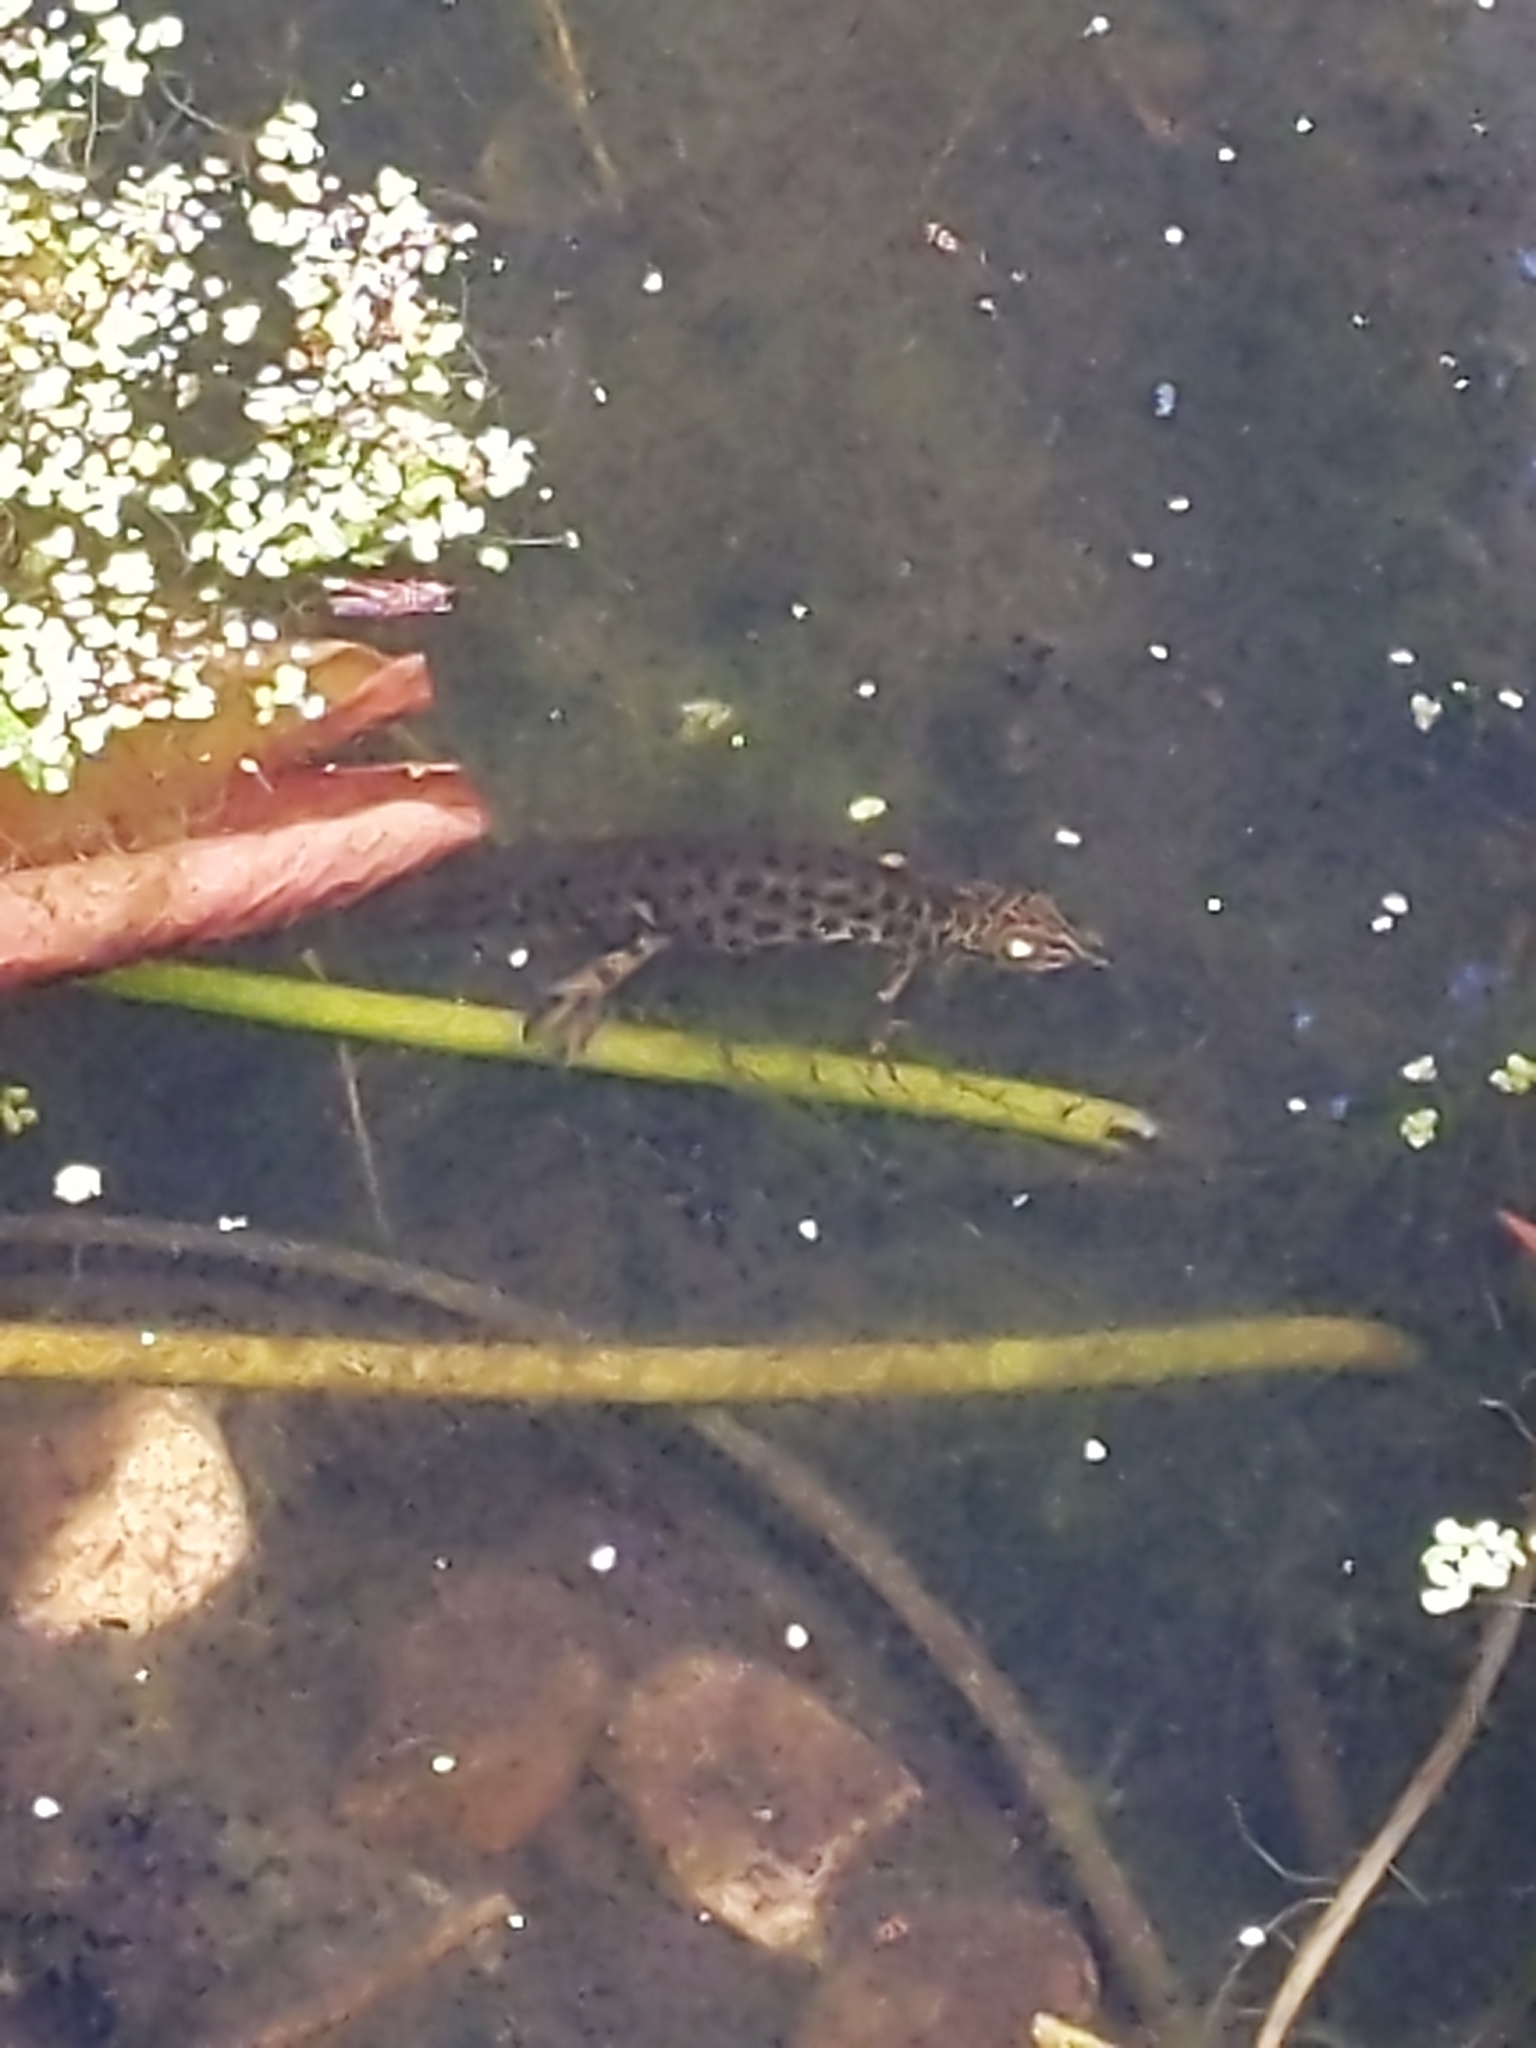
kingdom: Animalia
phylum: Chordata
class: Amphibia
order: Caudata
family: Salamandridae
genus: Lissotriton
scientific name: Lissotriton vulgaris
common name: Smooth newt
